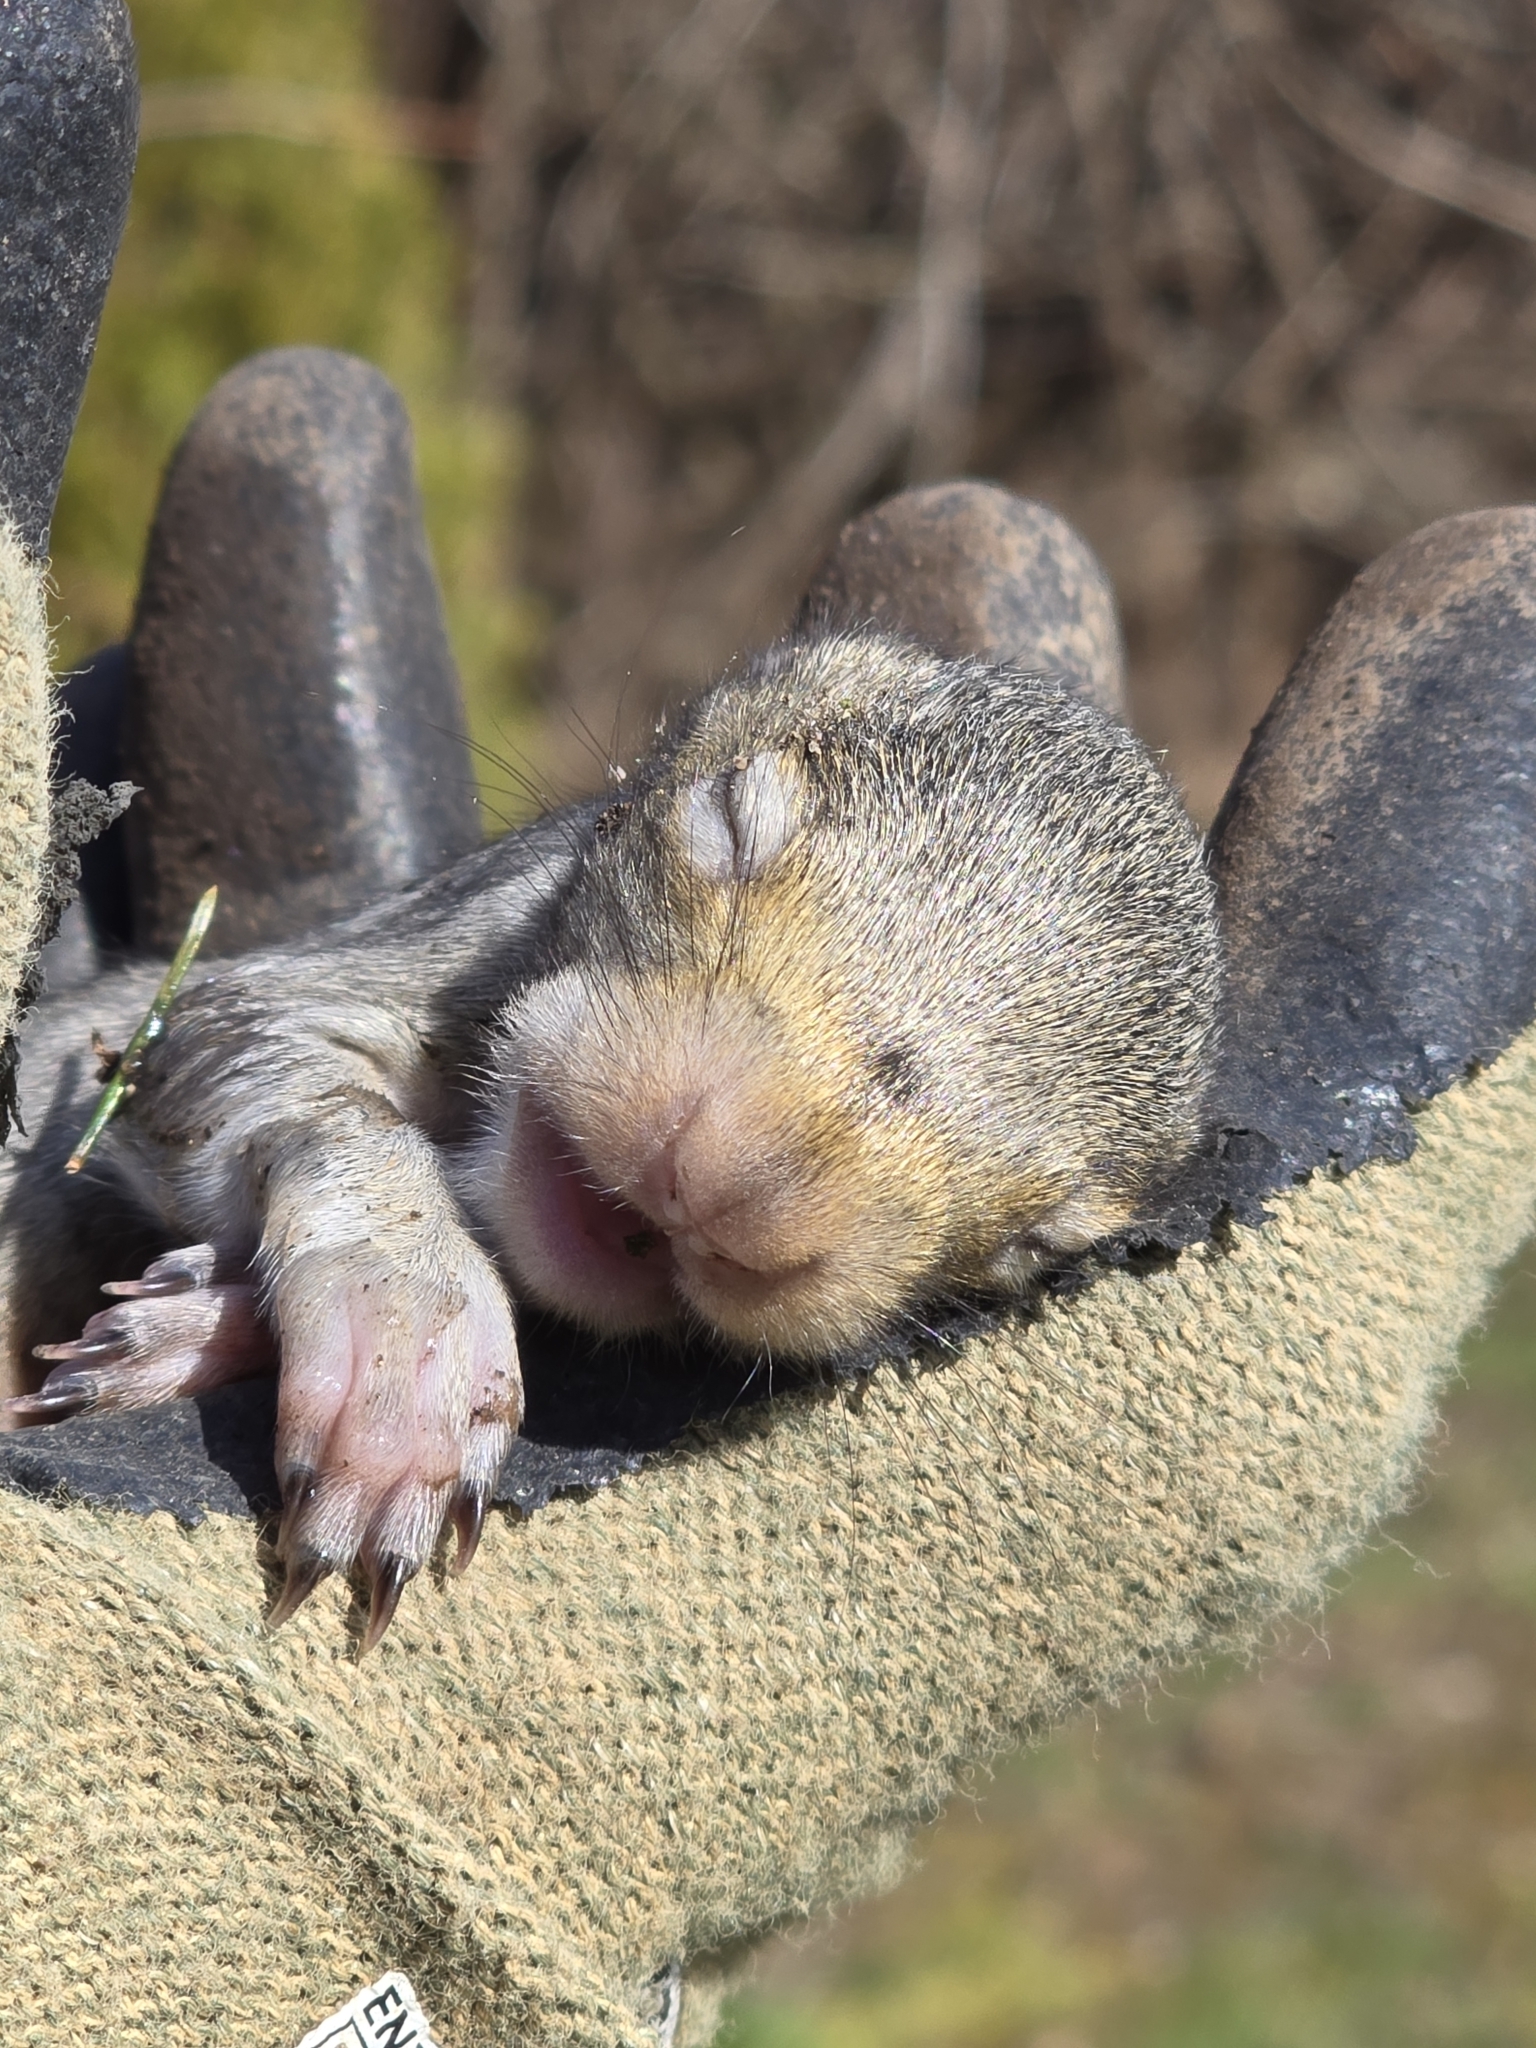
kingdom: Animalia
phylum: Chordata
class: Mammalia
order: Rodentia
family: Sciuridae
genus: Sciurus
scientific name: Sciurus carolinensis
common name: Eastern gray squirrel
